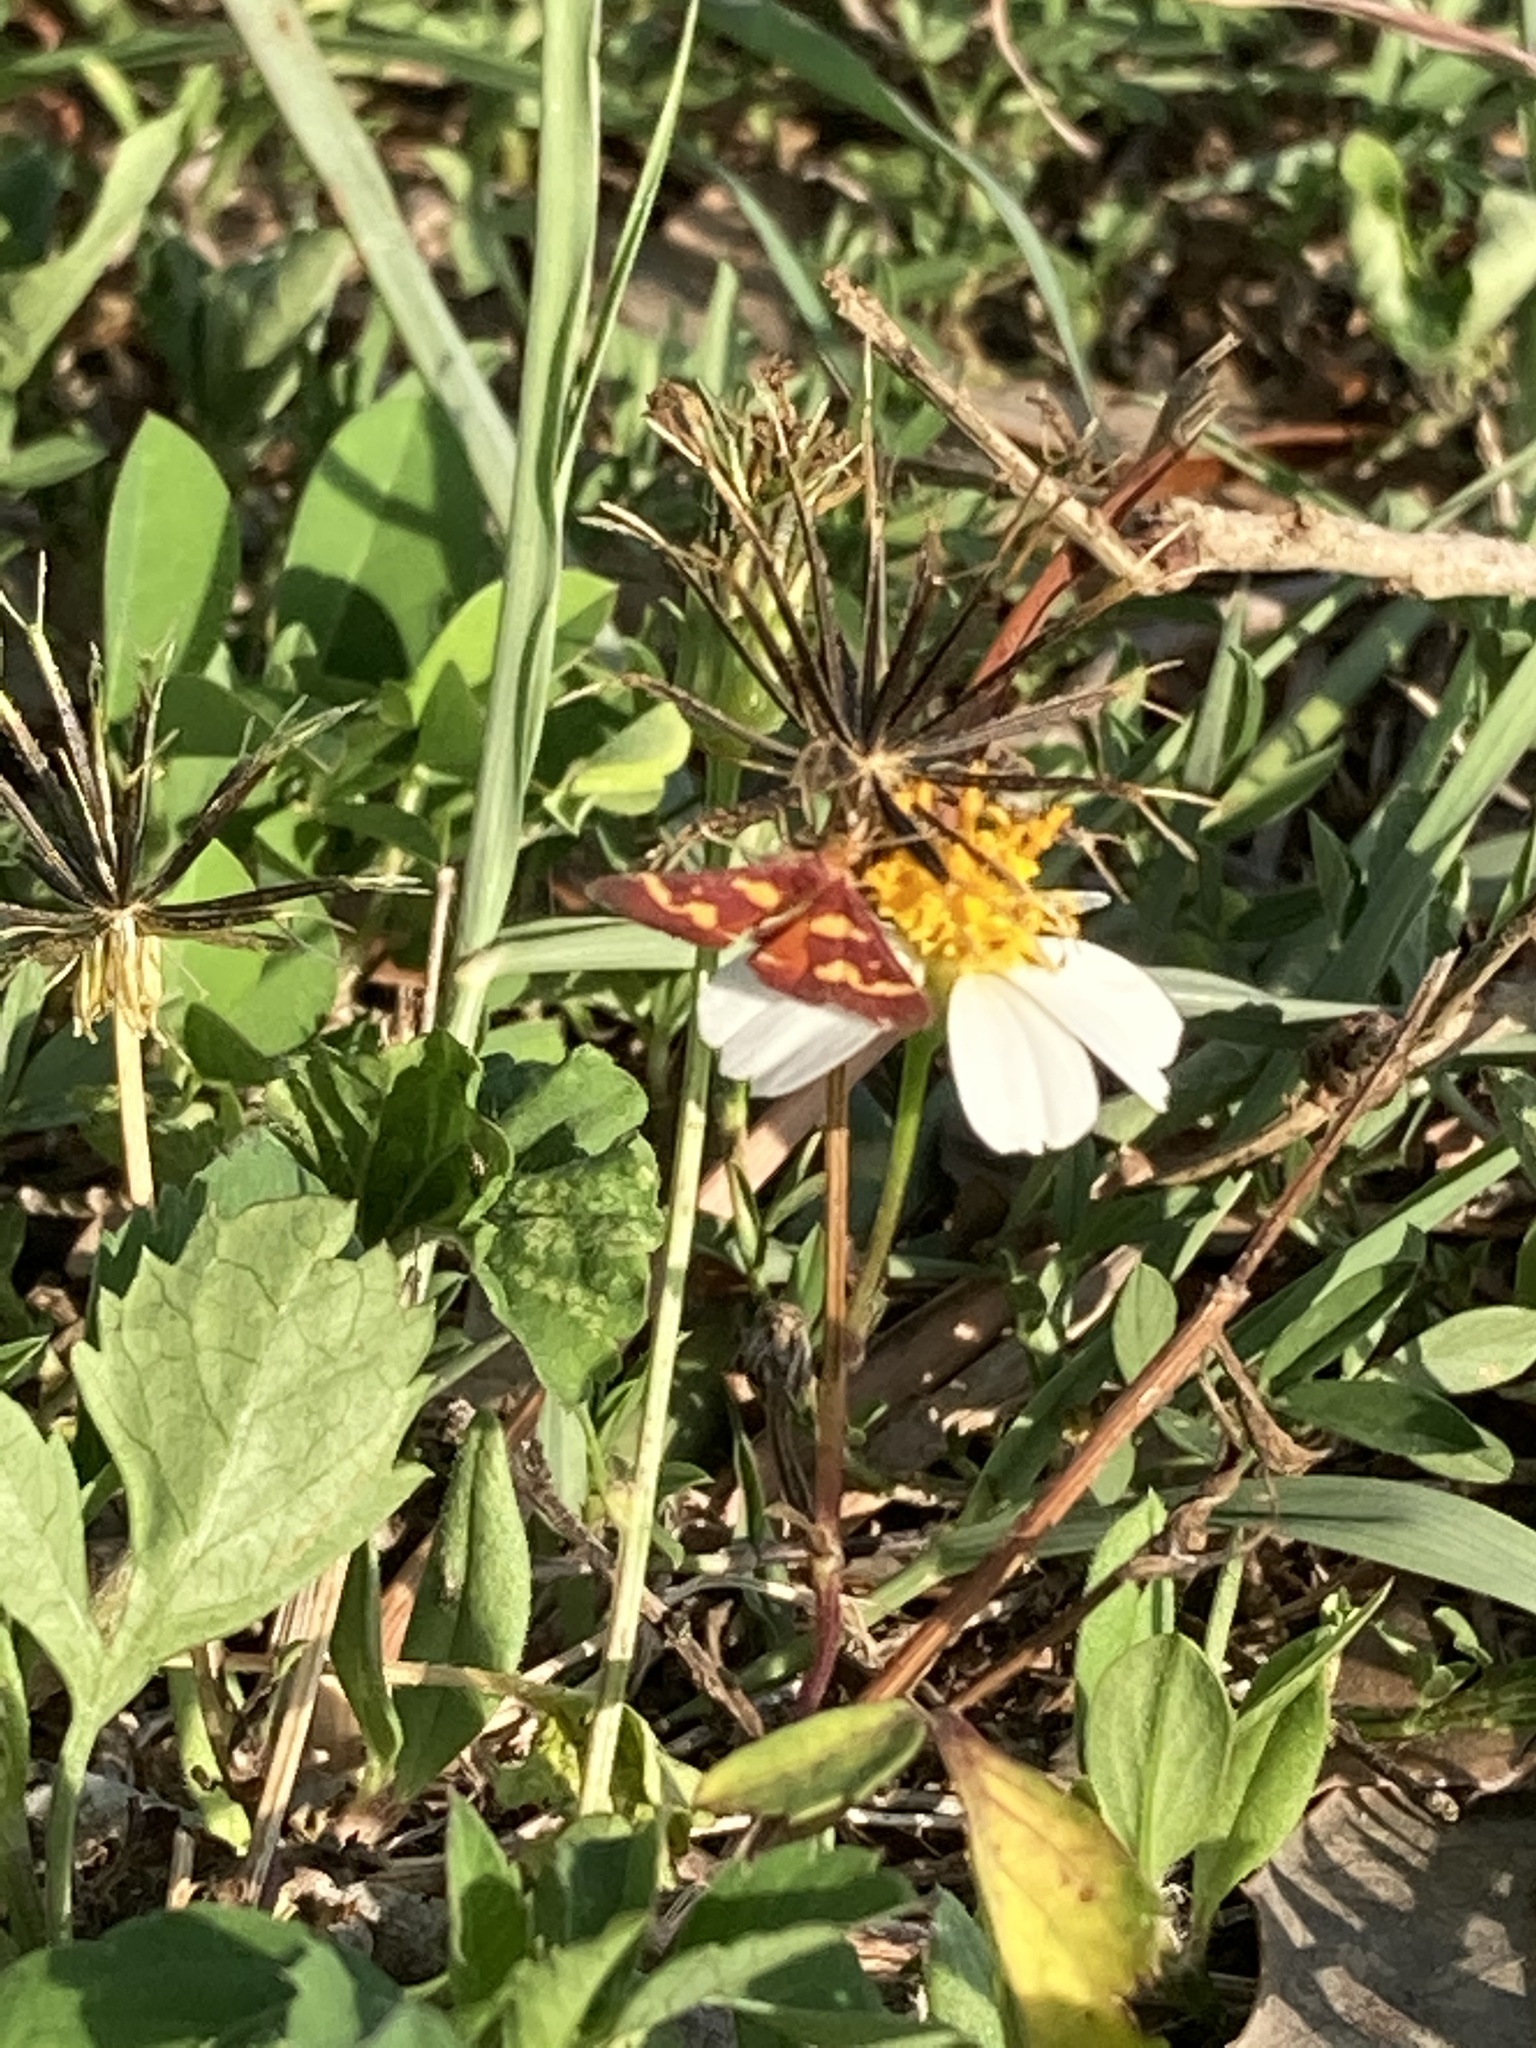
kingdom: Animalia
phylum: Arthropoda
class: Insecta
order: Lepidoptera
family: Crambidae
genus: Pyrausta
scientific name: Pyrausta tyralis
